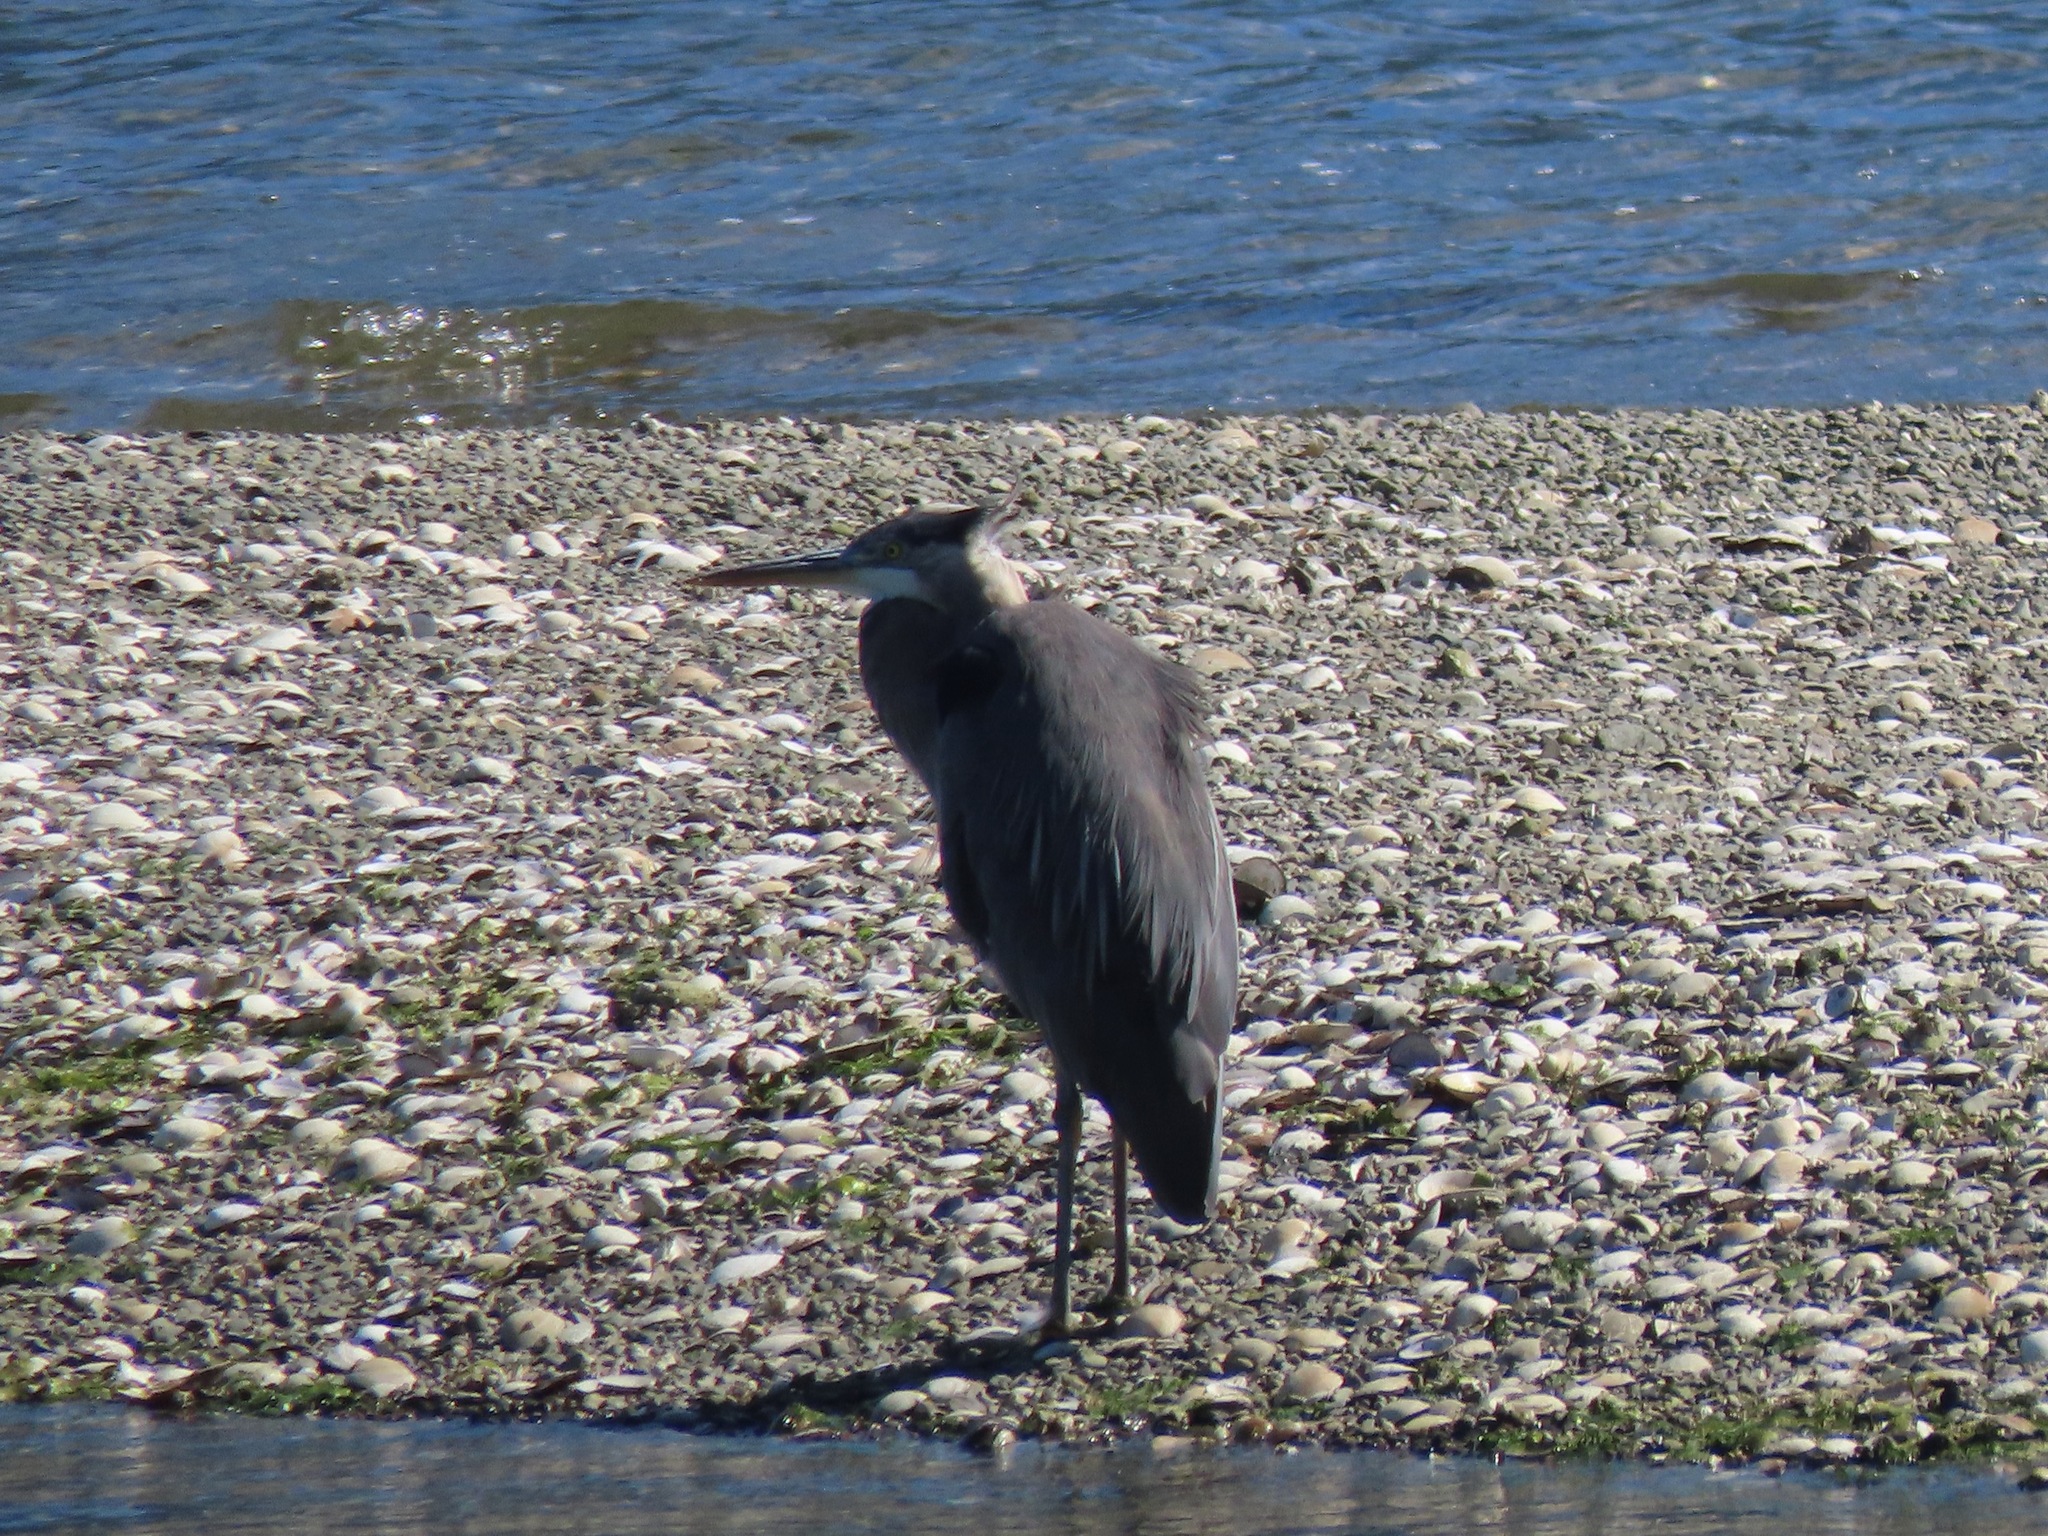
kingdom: Animalia
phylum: Chordata
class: Aves
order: Pelecaniformes
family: Ardeidae
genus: Ardea
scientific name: Ardea herodias
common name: Great blue heron
